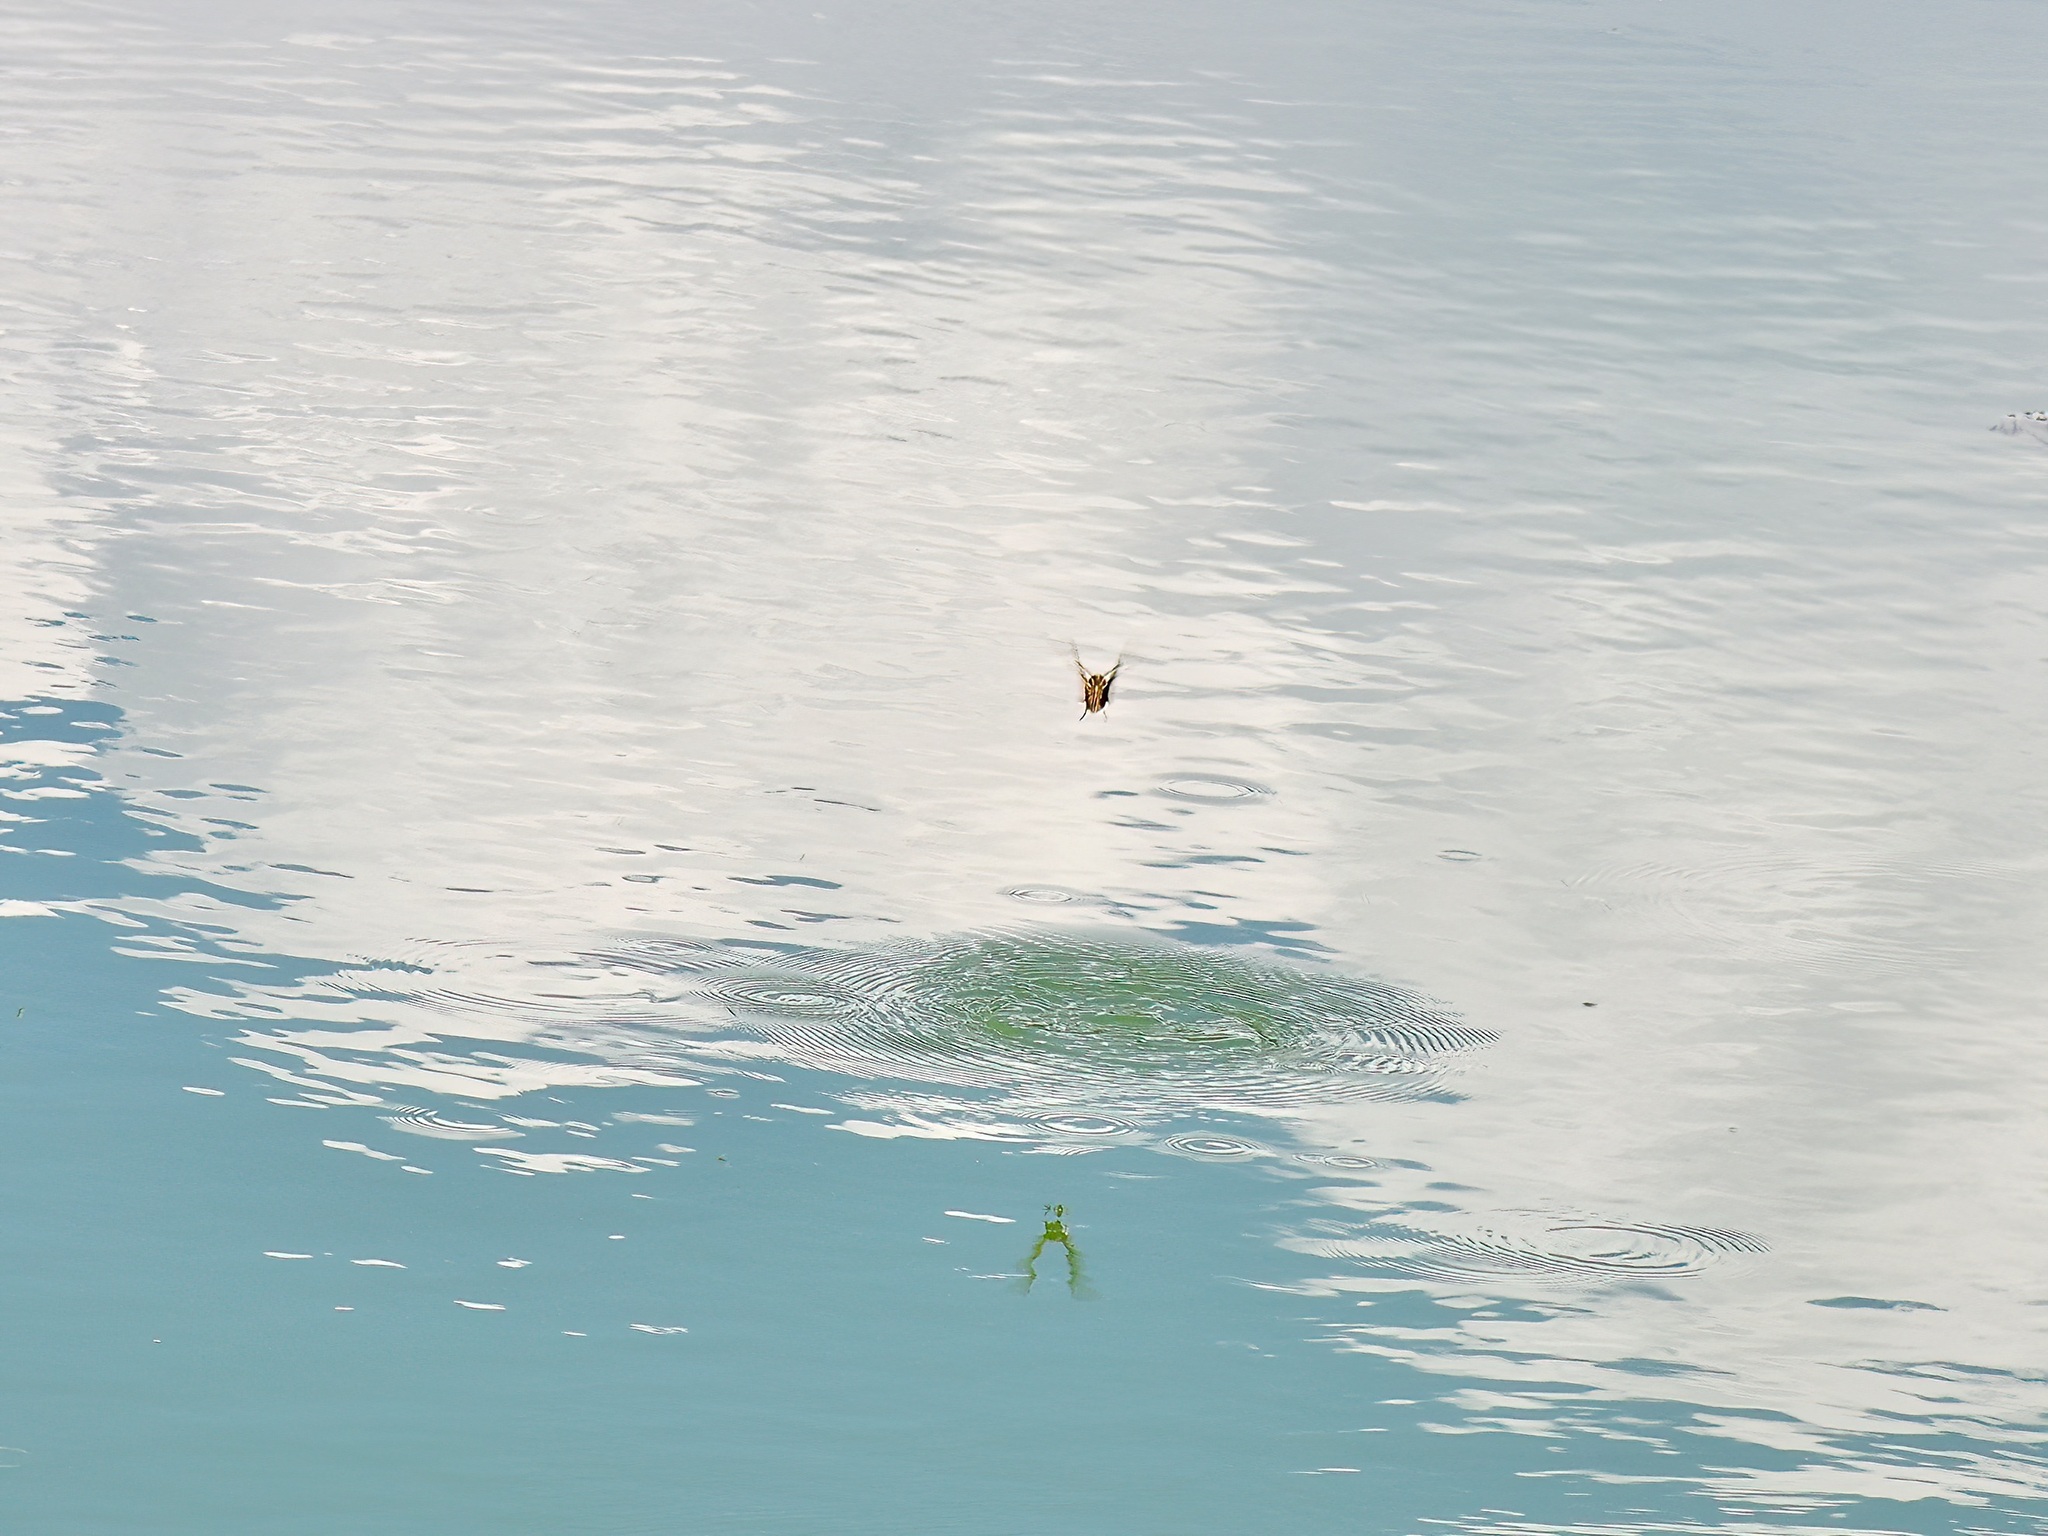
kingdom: Animalia
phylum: Arthropoda
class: Insecta
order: Lepidoptera
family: Sphingidae
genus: Hyles
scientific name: Hyles lineata
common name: White-lined sphinx
